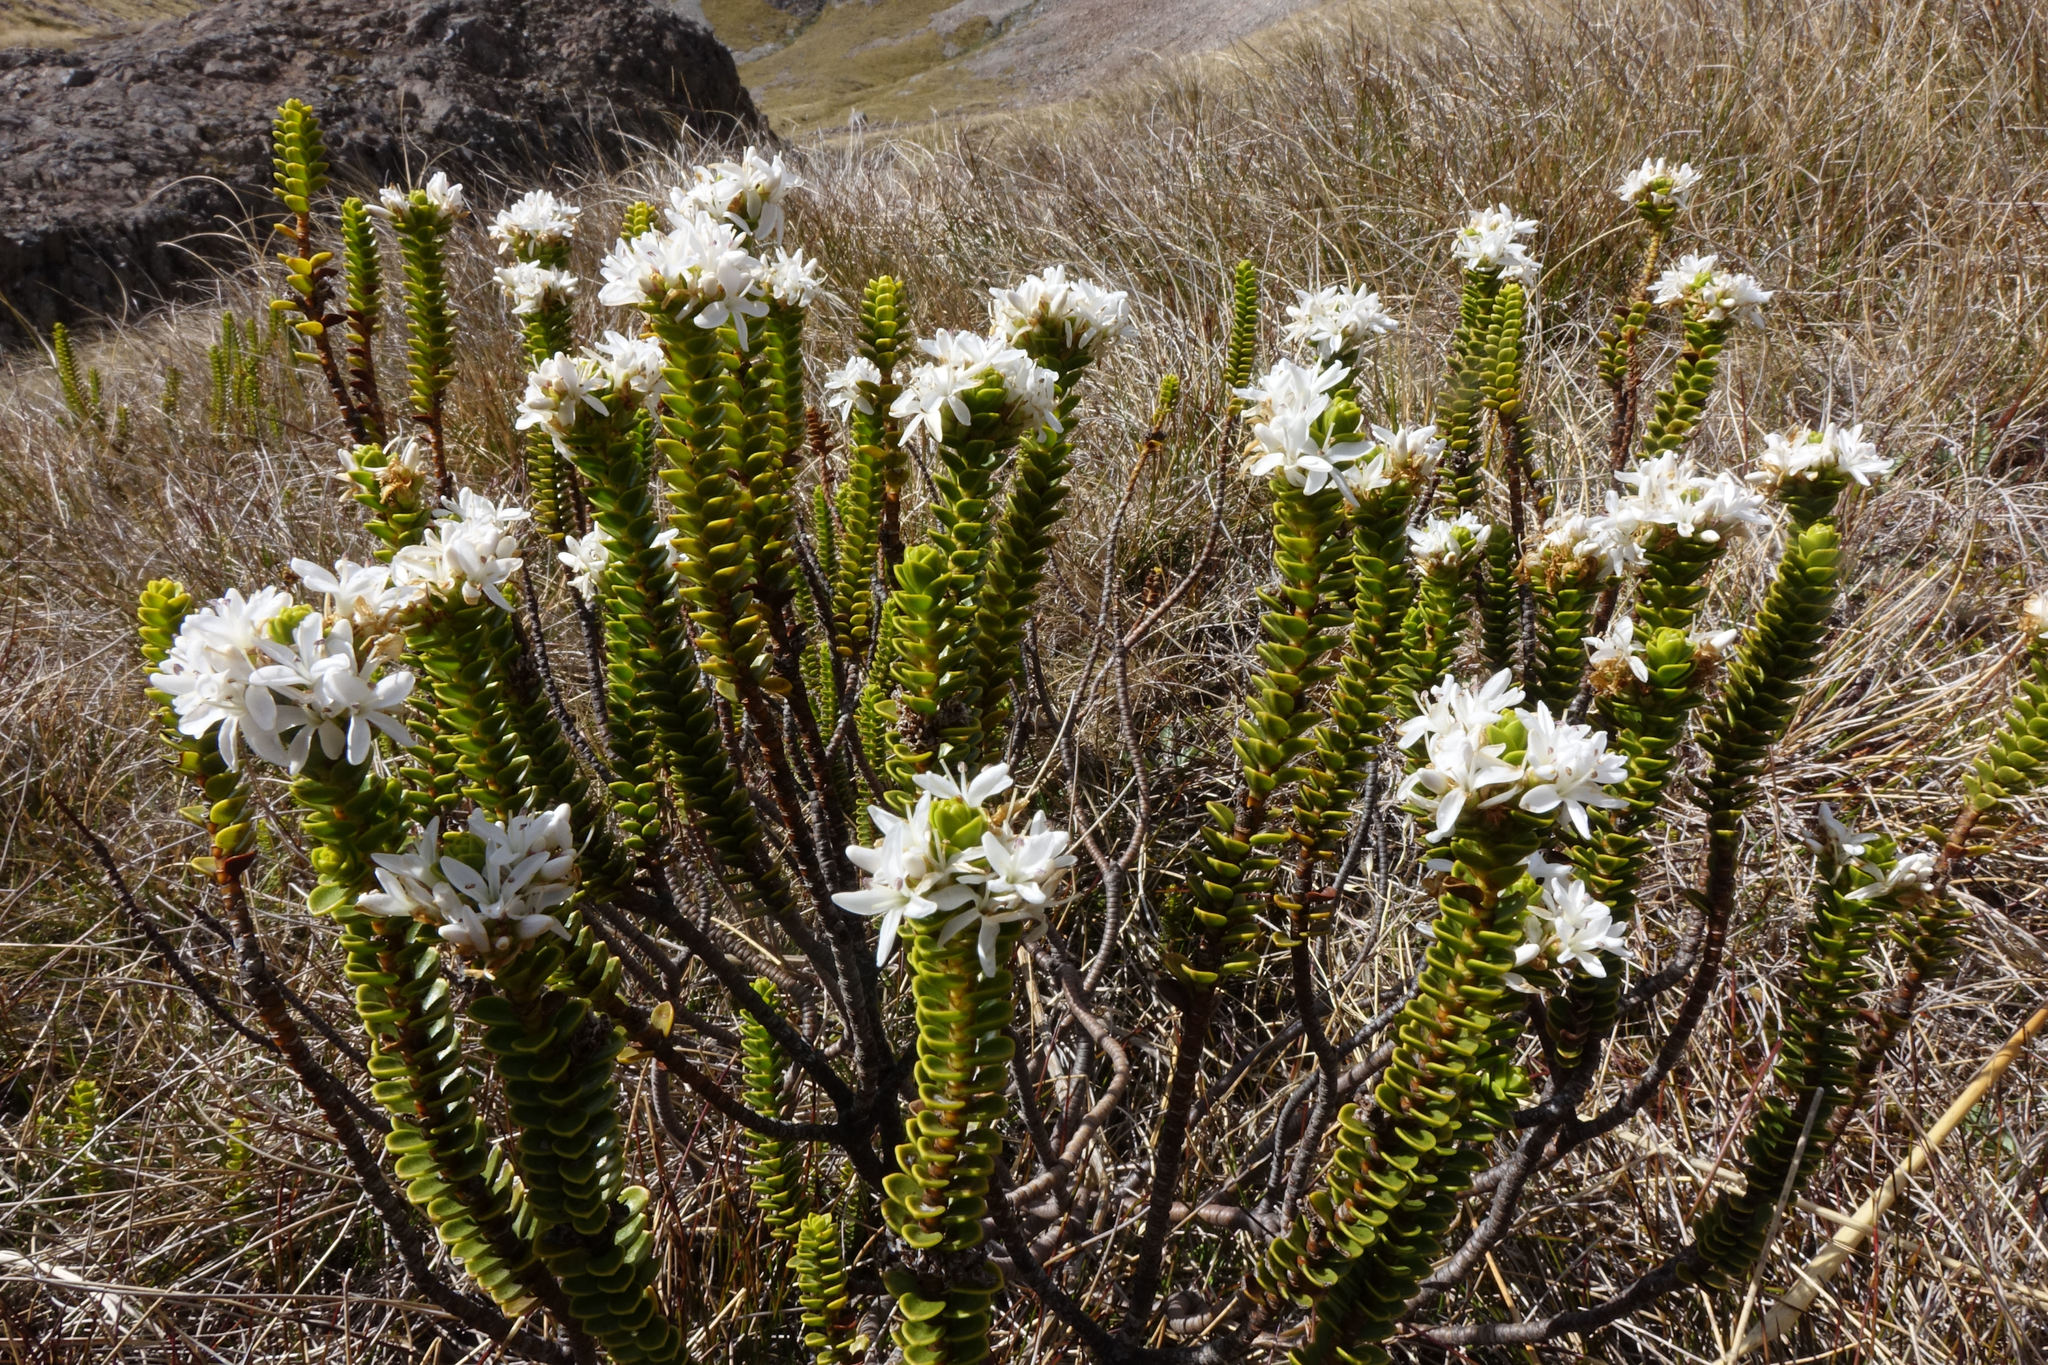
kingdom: Plantae
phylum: Tracheophyta
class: Magnoliopsida
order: Lamiales
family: Plantaginaceae
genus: Veronica
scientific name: Veronica pauciramosa
